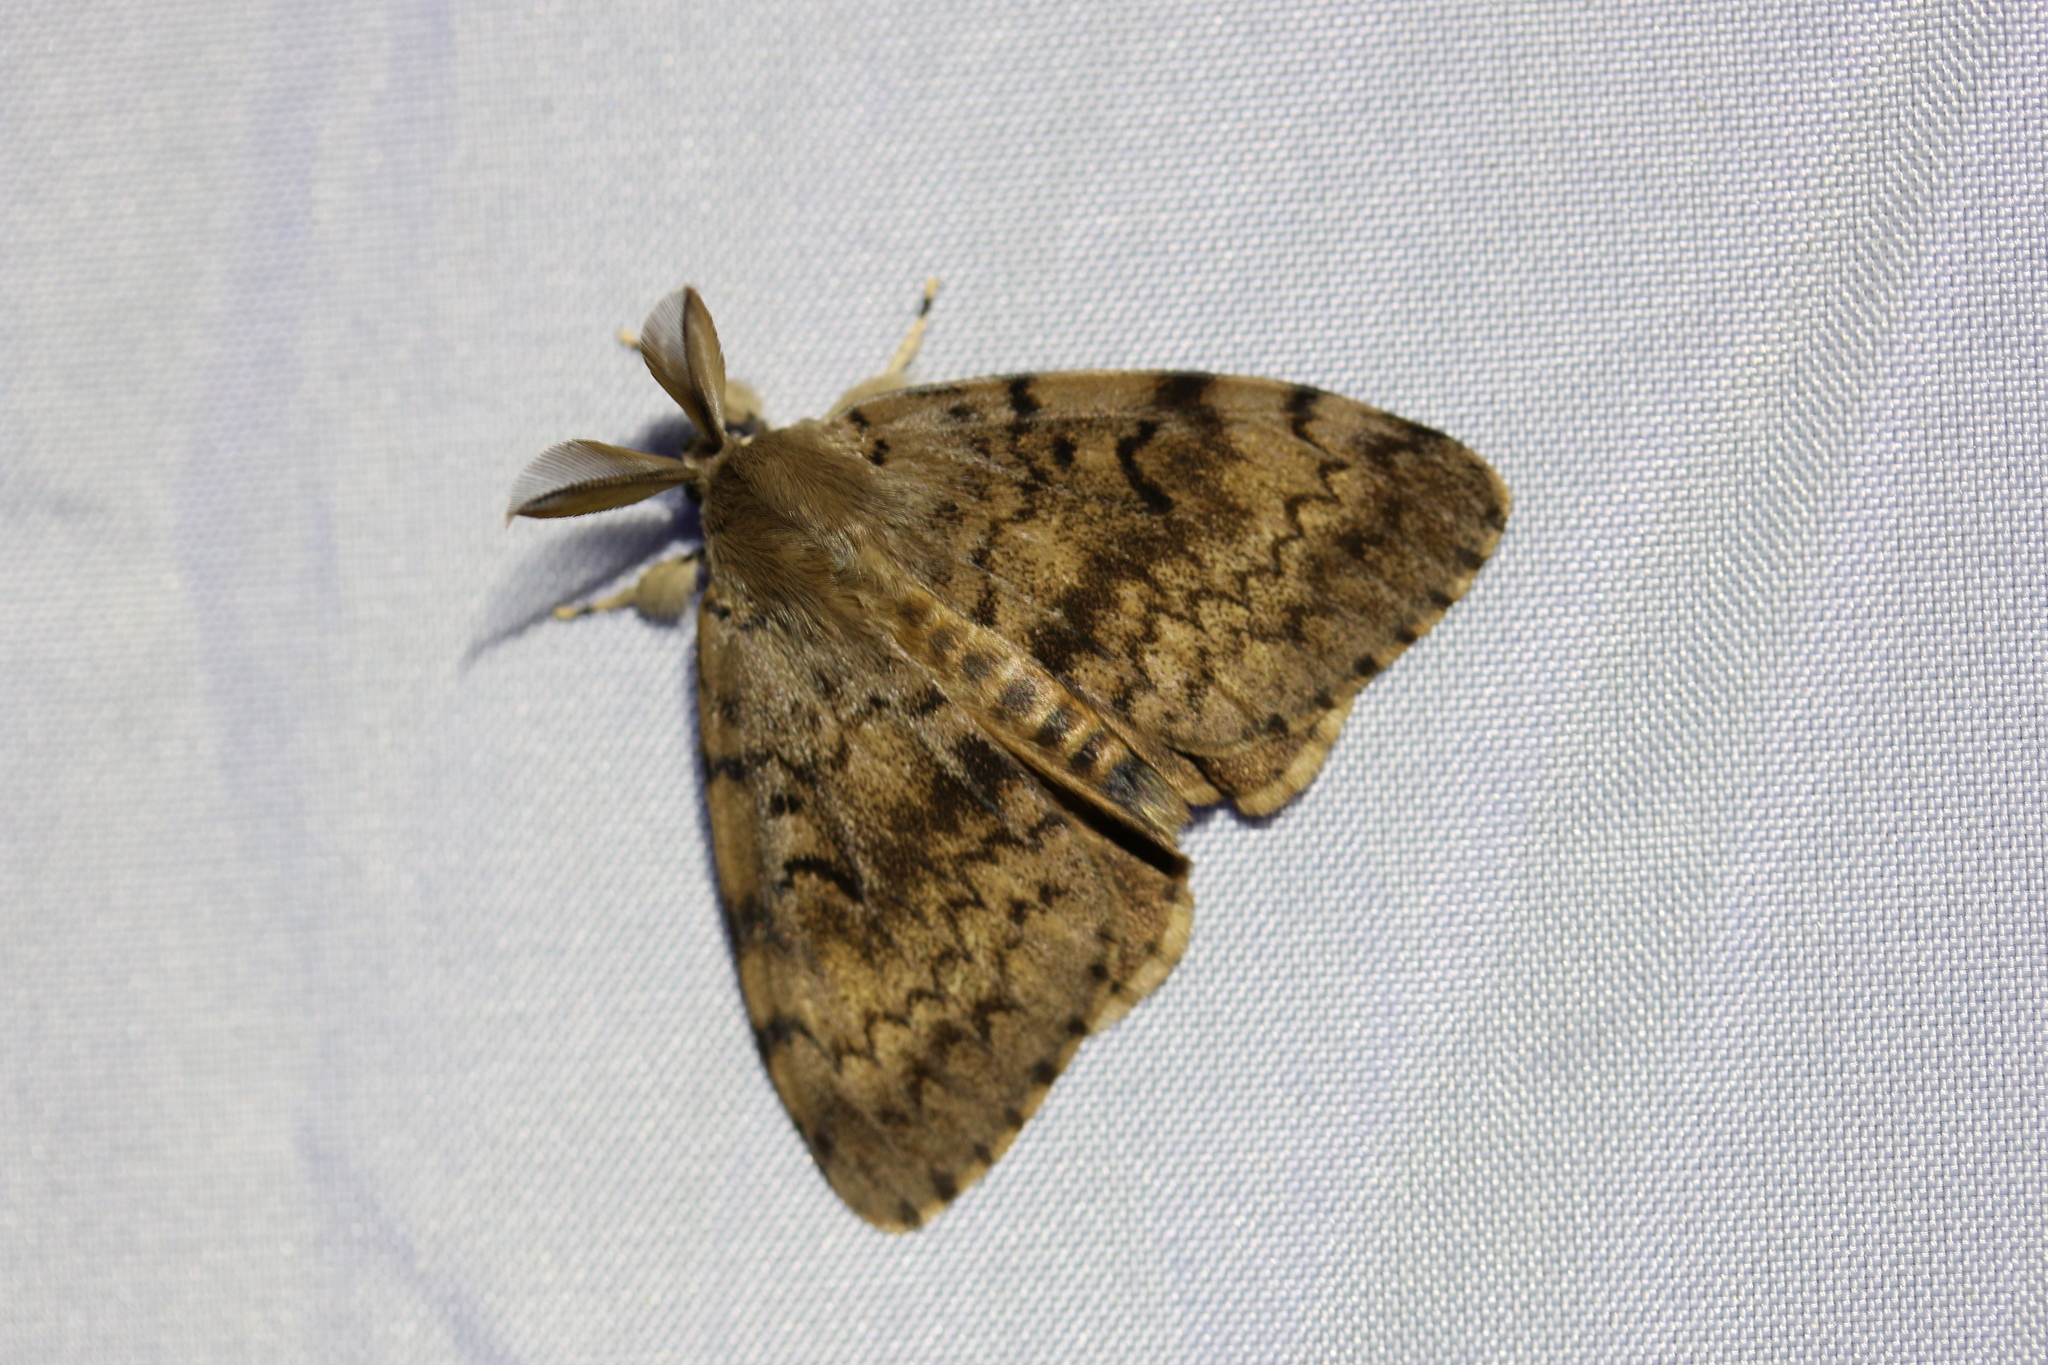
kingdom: Animalia
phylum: Arthropoda
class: Insecta
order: Lepidoptera
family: Erebidae
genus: Lymantria
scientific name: Lymantria dispar
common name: Gypsy moth
